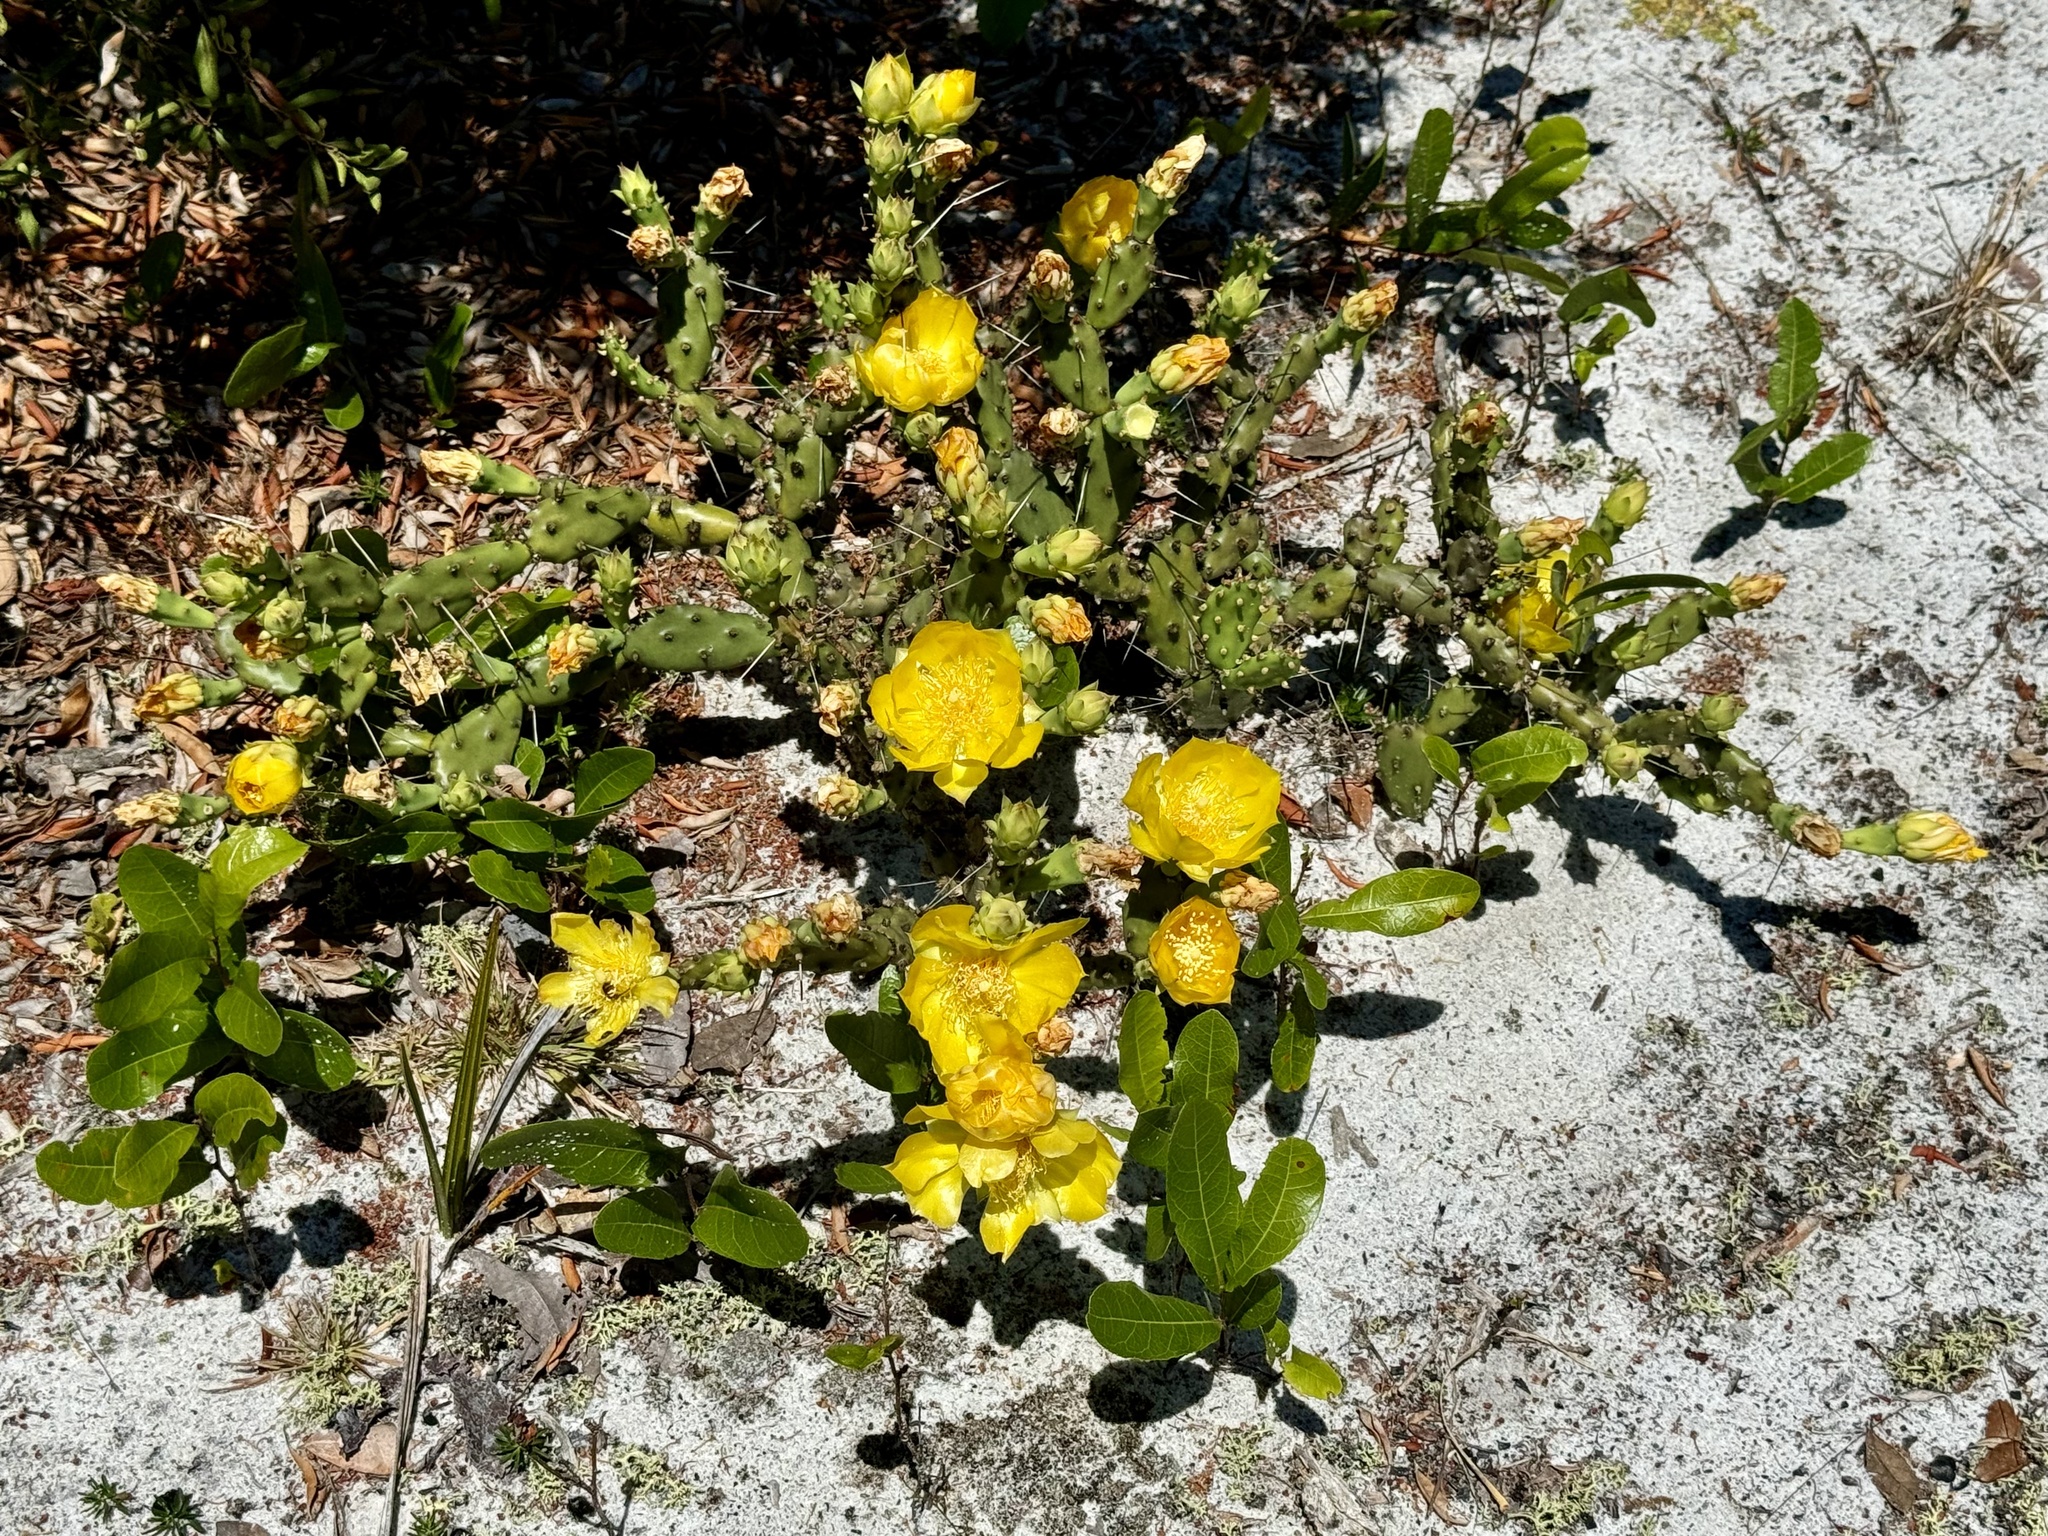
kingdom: Plantae
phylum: Tracheophyta
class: Magnoliopsida
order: Caryophyllales
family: Cactaceae
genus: Opuntia
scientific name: Opuntia austrina
